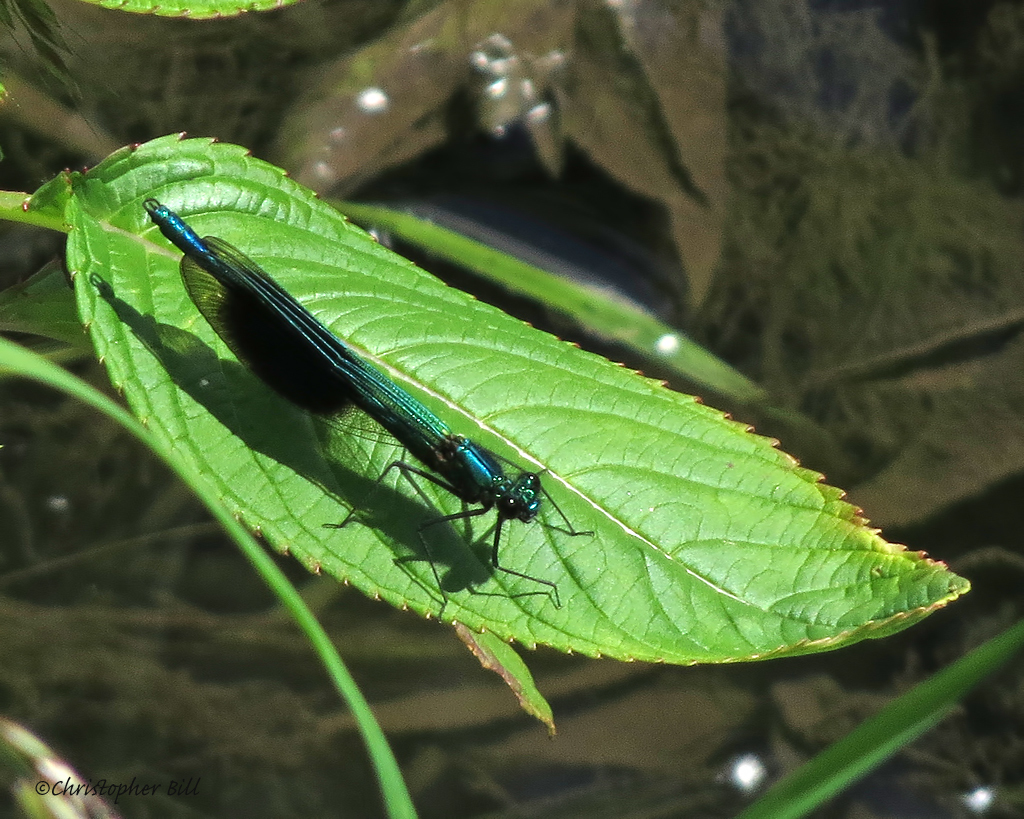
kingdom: Animalia
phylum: Arthropoda
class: Insecta
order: Odonata
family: Calopterygidae
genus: Calopteryx
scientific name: Calopteryx splendens
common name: Banded demoiselle
